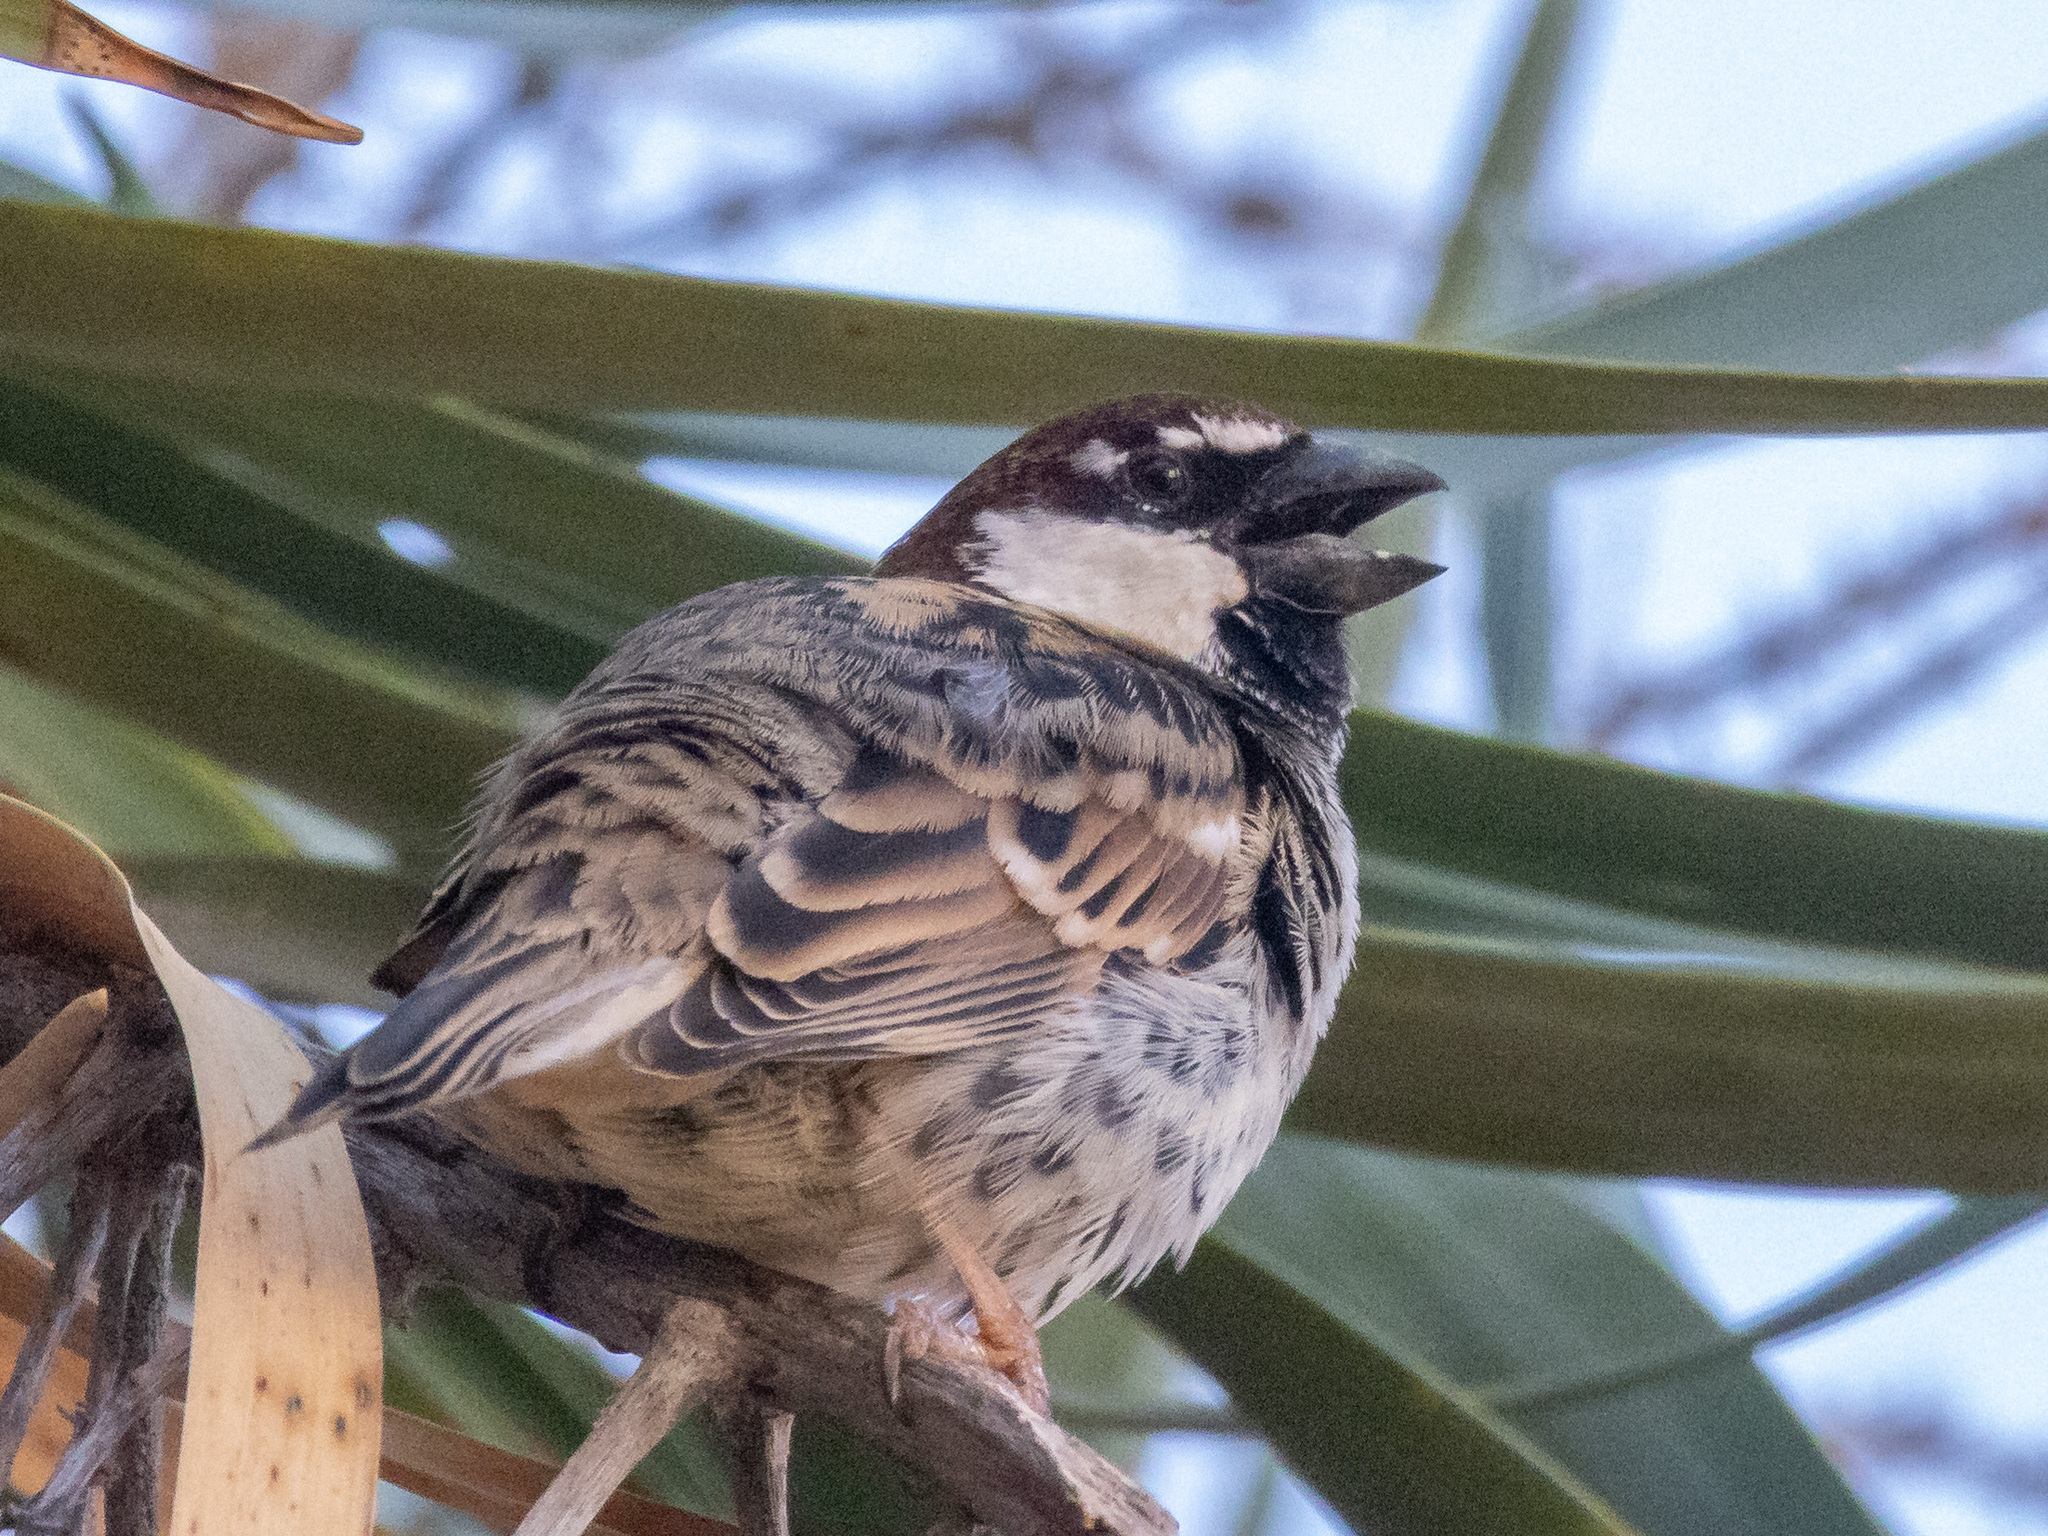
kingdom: Animalia
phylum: Chordata
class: Aves
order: Passeriformes
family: Passeridae
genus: Passer
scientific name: Passer hispaniolensis
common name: Spanish sparrow
